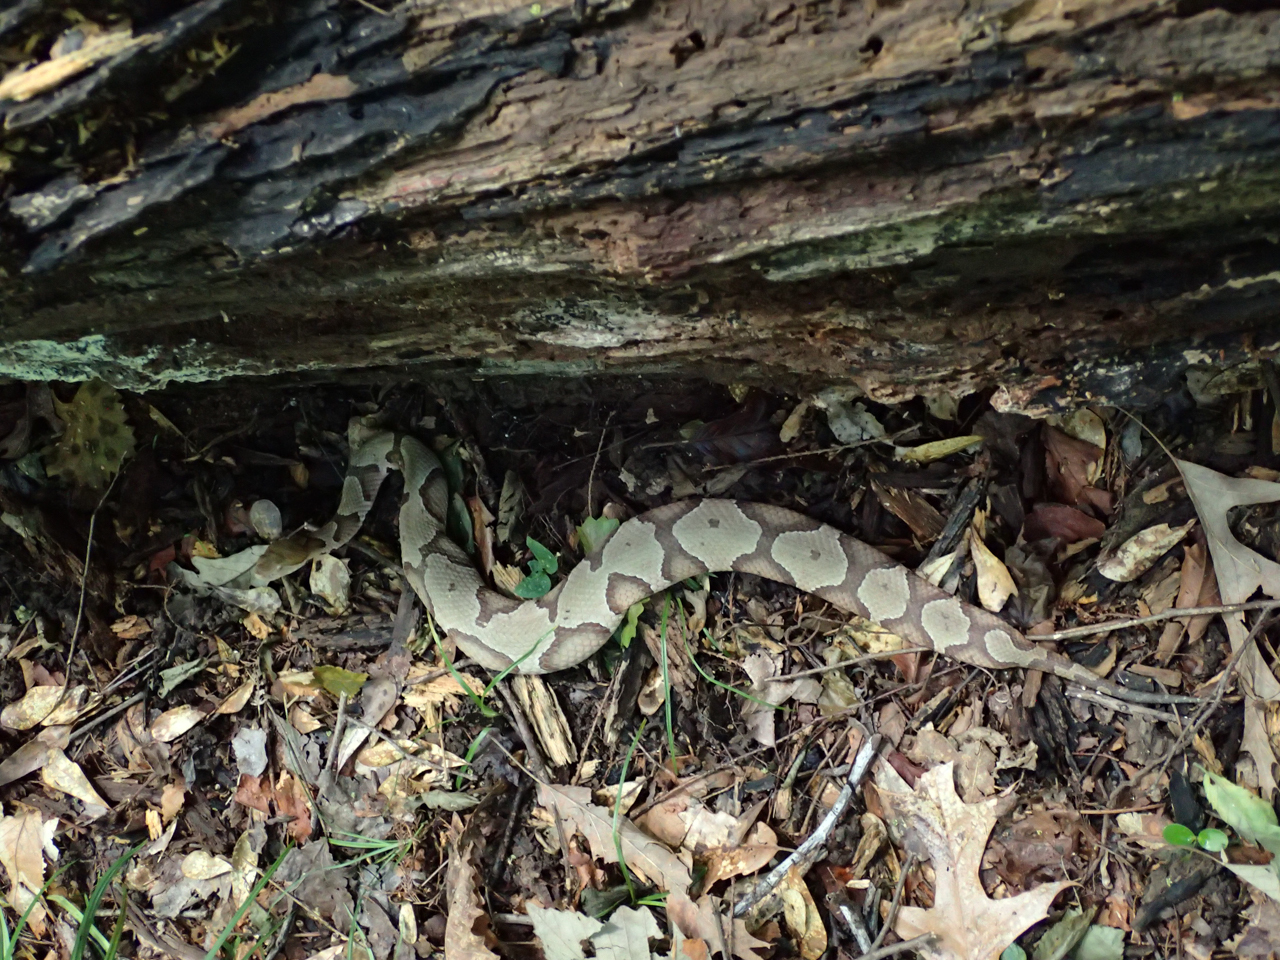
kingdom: Animalia
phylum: Chordata
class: Squamata
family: Viperidae
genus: Agkistrodon
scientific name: Agkistrodon contortrix
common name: Northern copperhead
